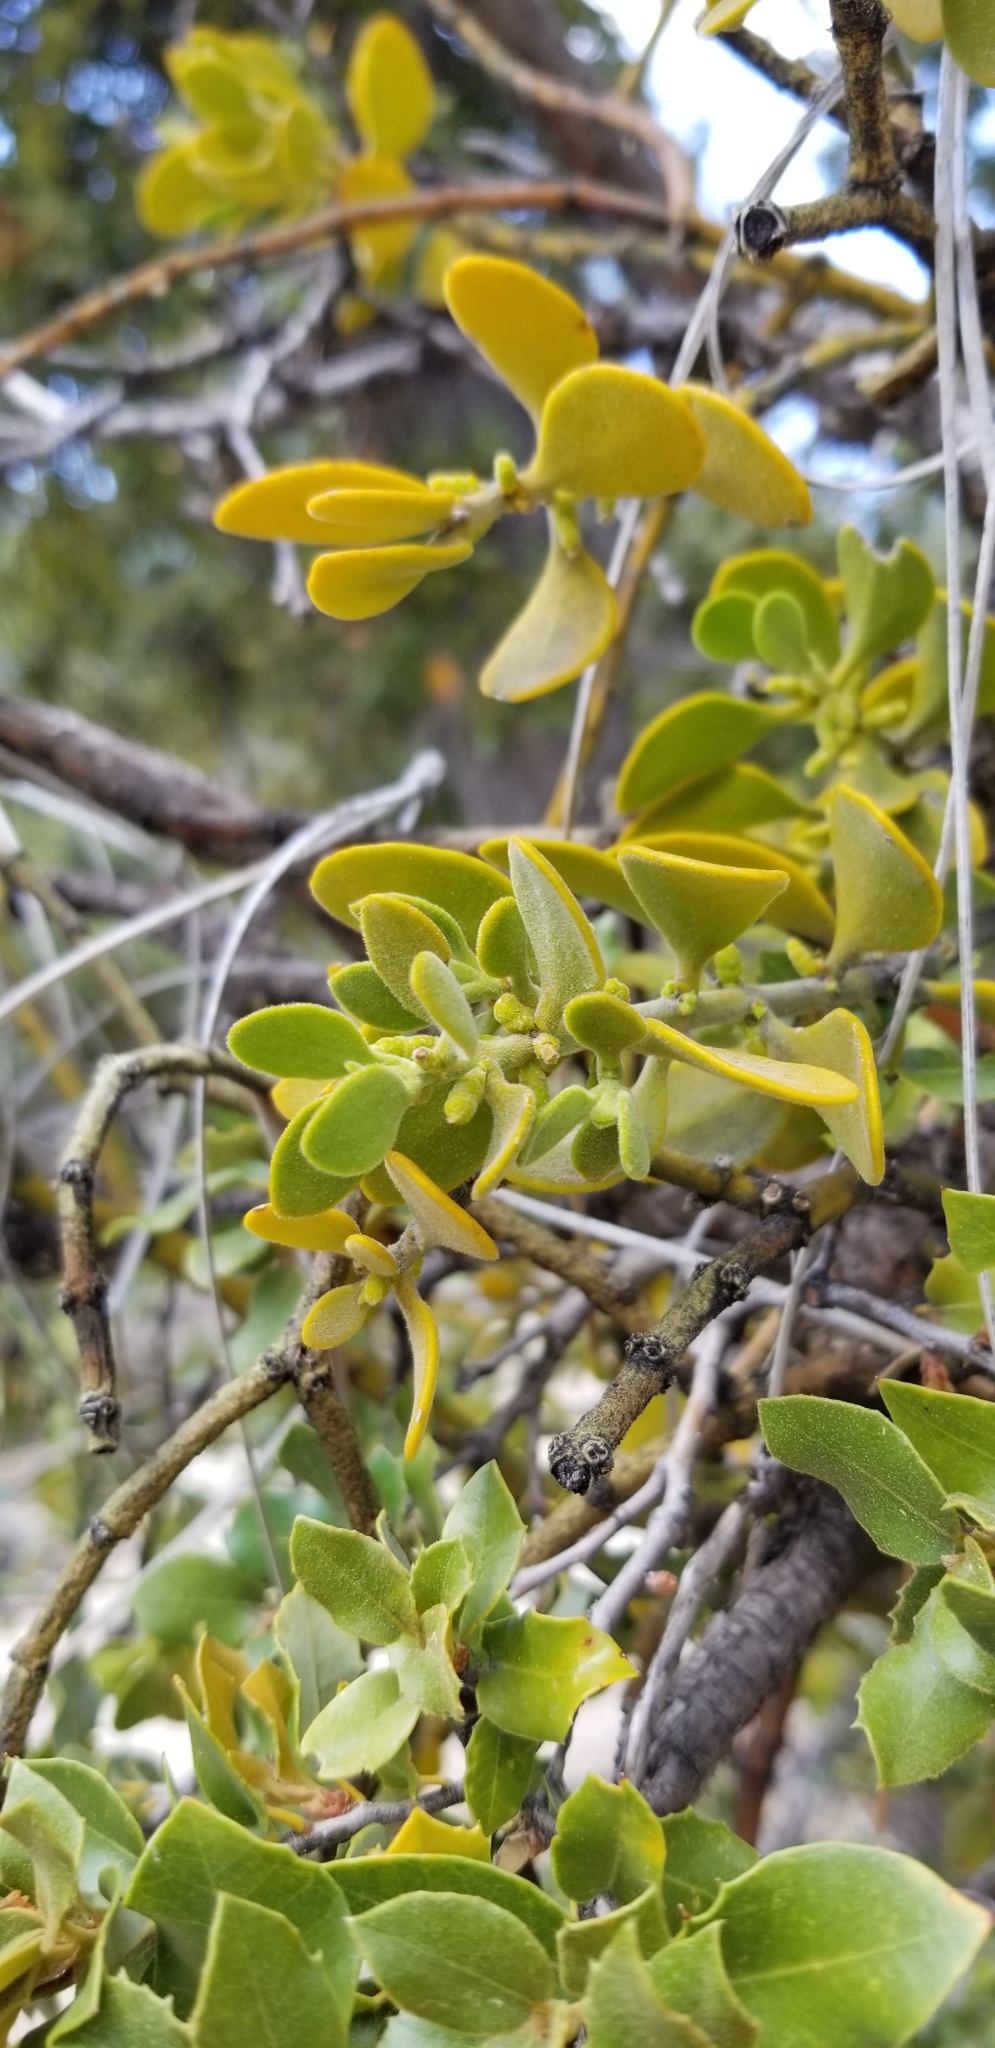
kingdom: Plantae
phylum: Tracheophyta
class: Magnoliopsida
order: Santalales
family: Viscaceae
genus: Phoradendron
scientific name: Phoradendron leucarpum
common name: Pacific mistletoe
